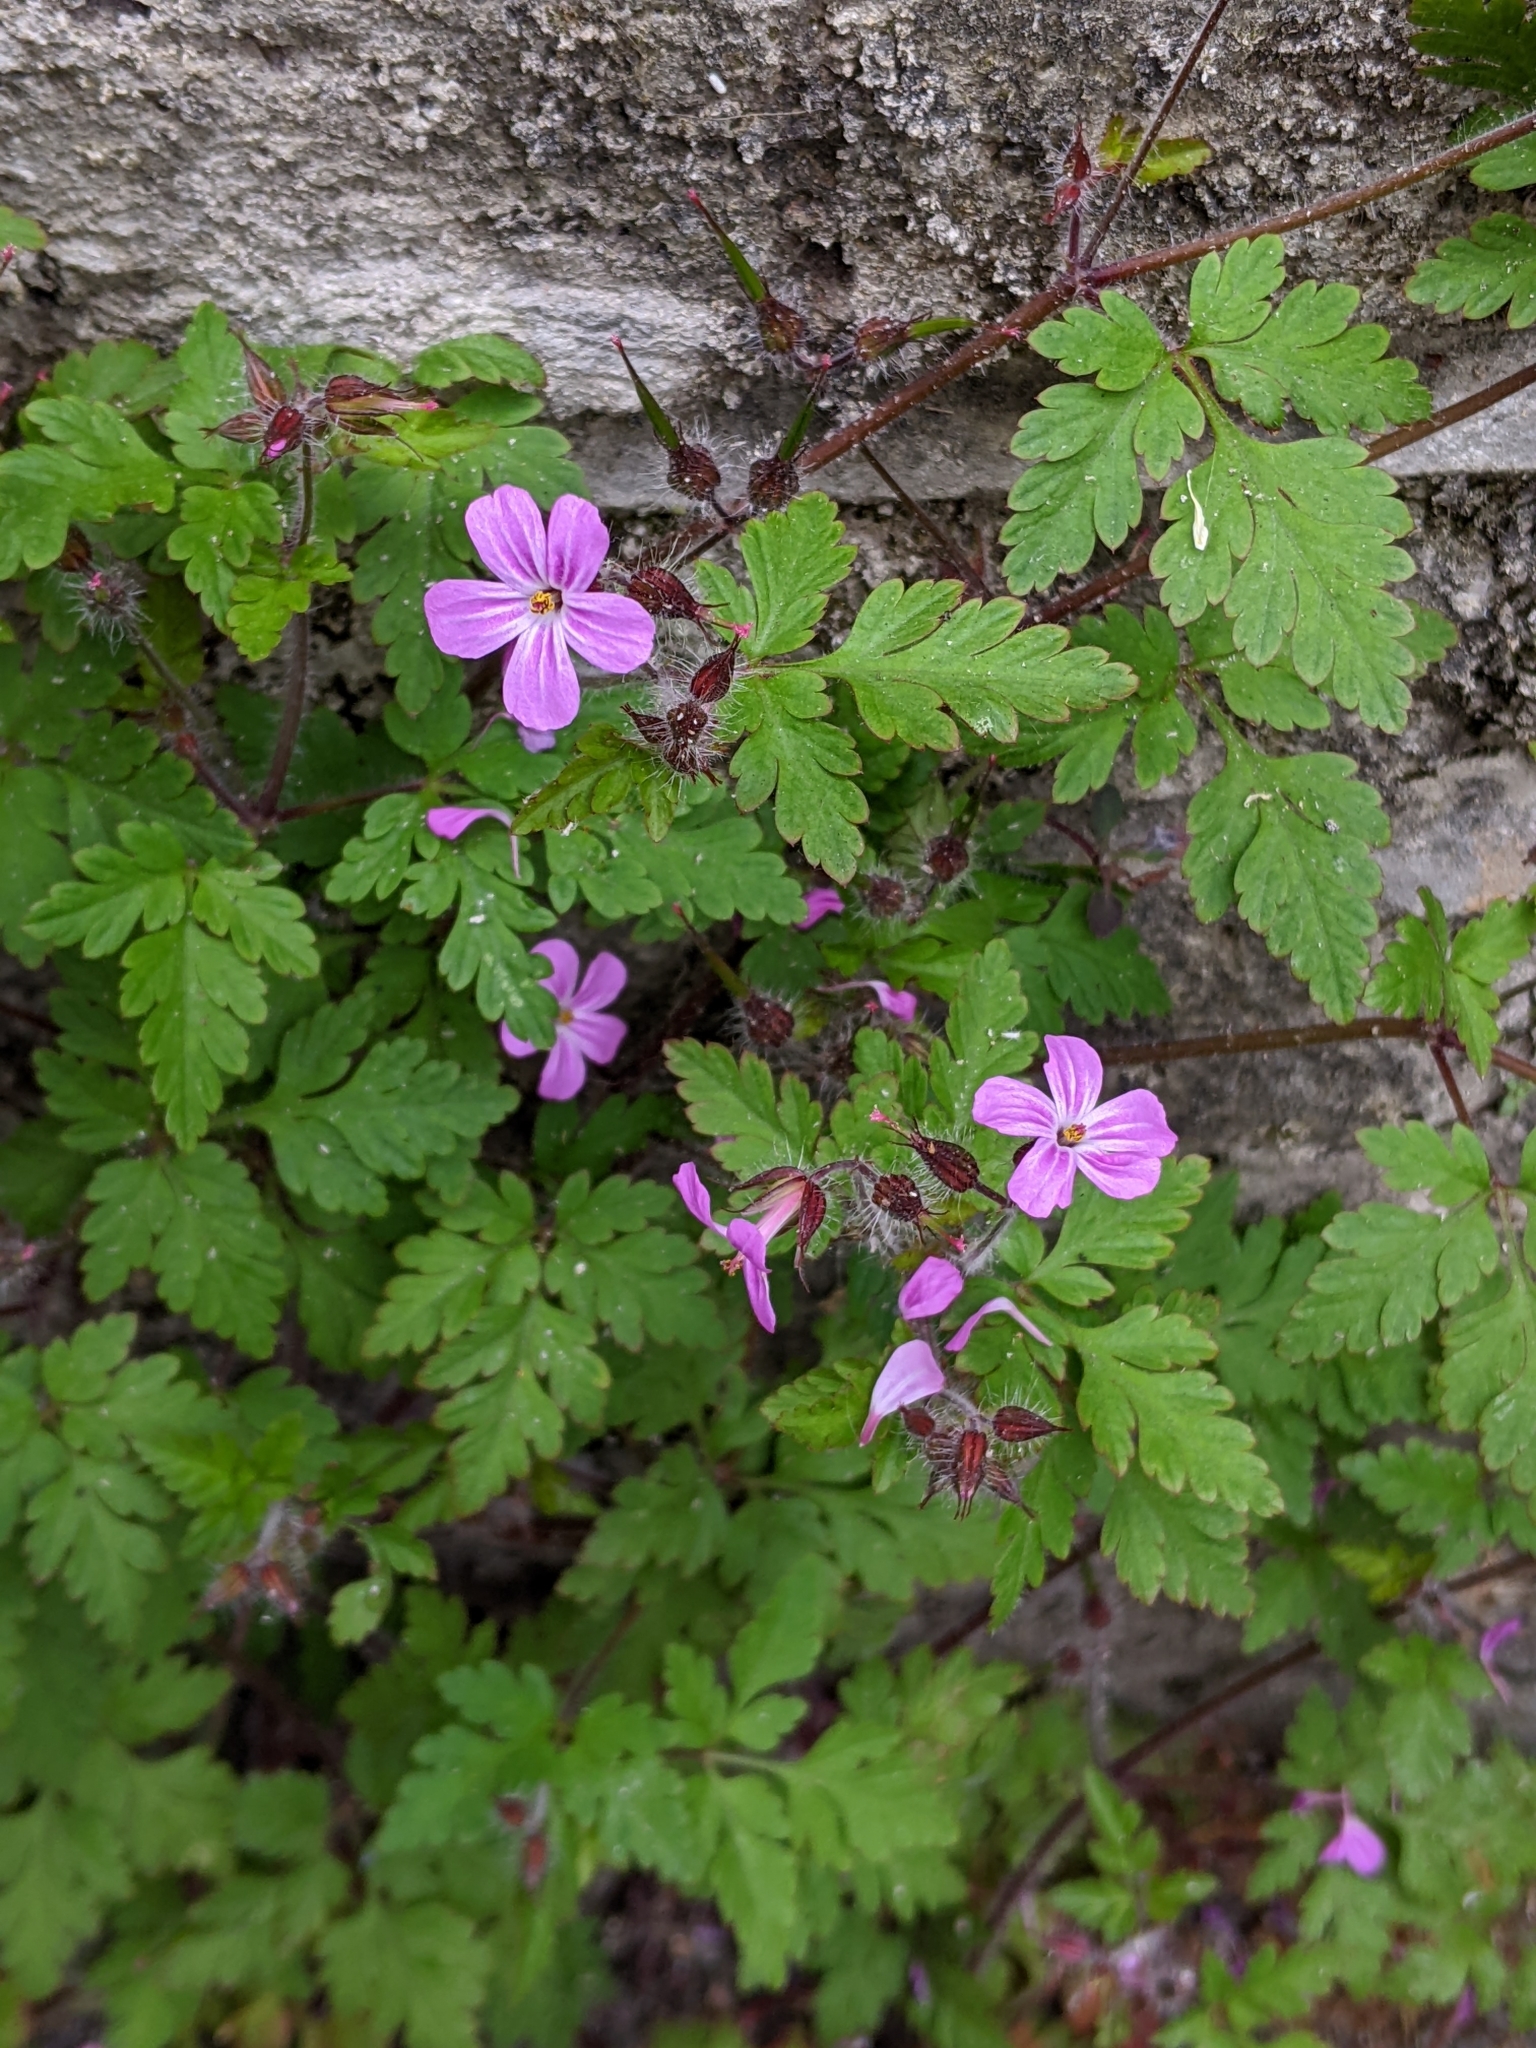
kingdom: Plantae
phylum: Tracheophyta
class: Magnoliopsida
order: Geraniales
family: Geraniaceae
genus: Geranium
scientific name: Geranium robertianum
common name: Herb-robert
